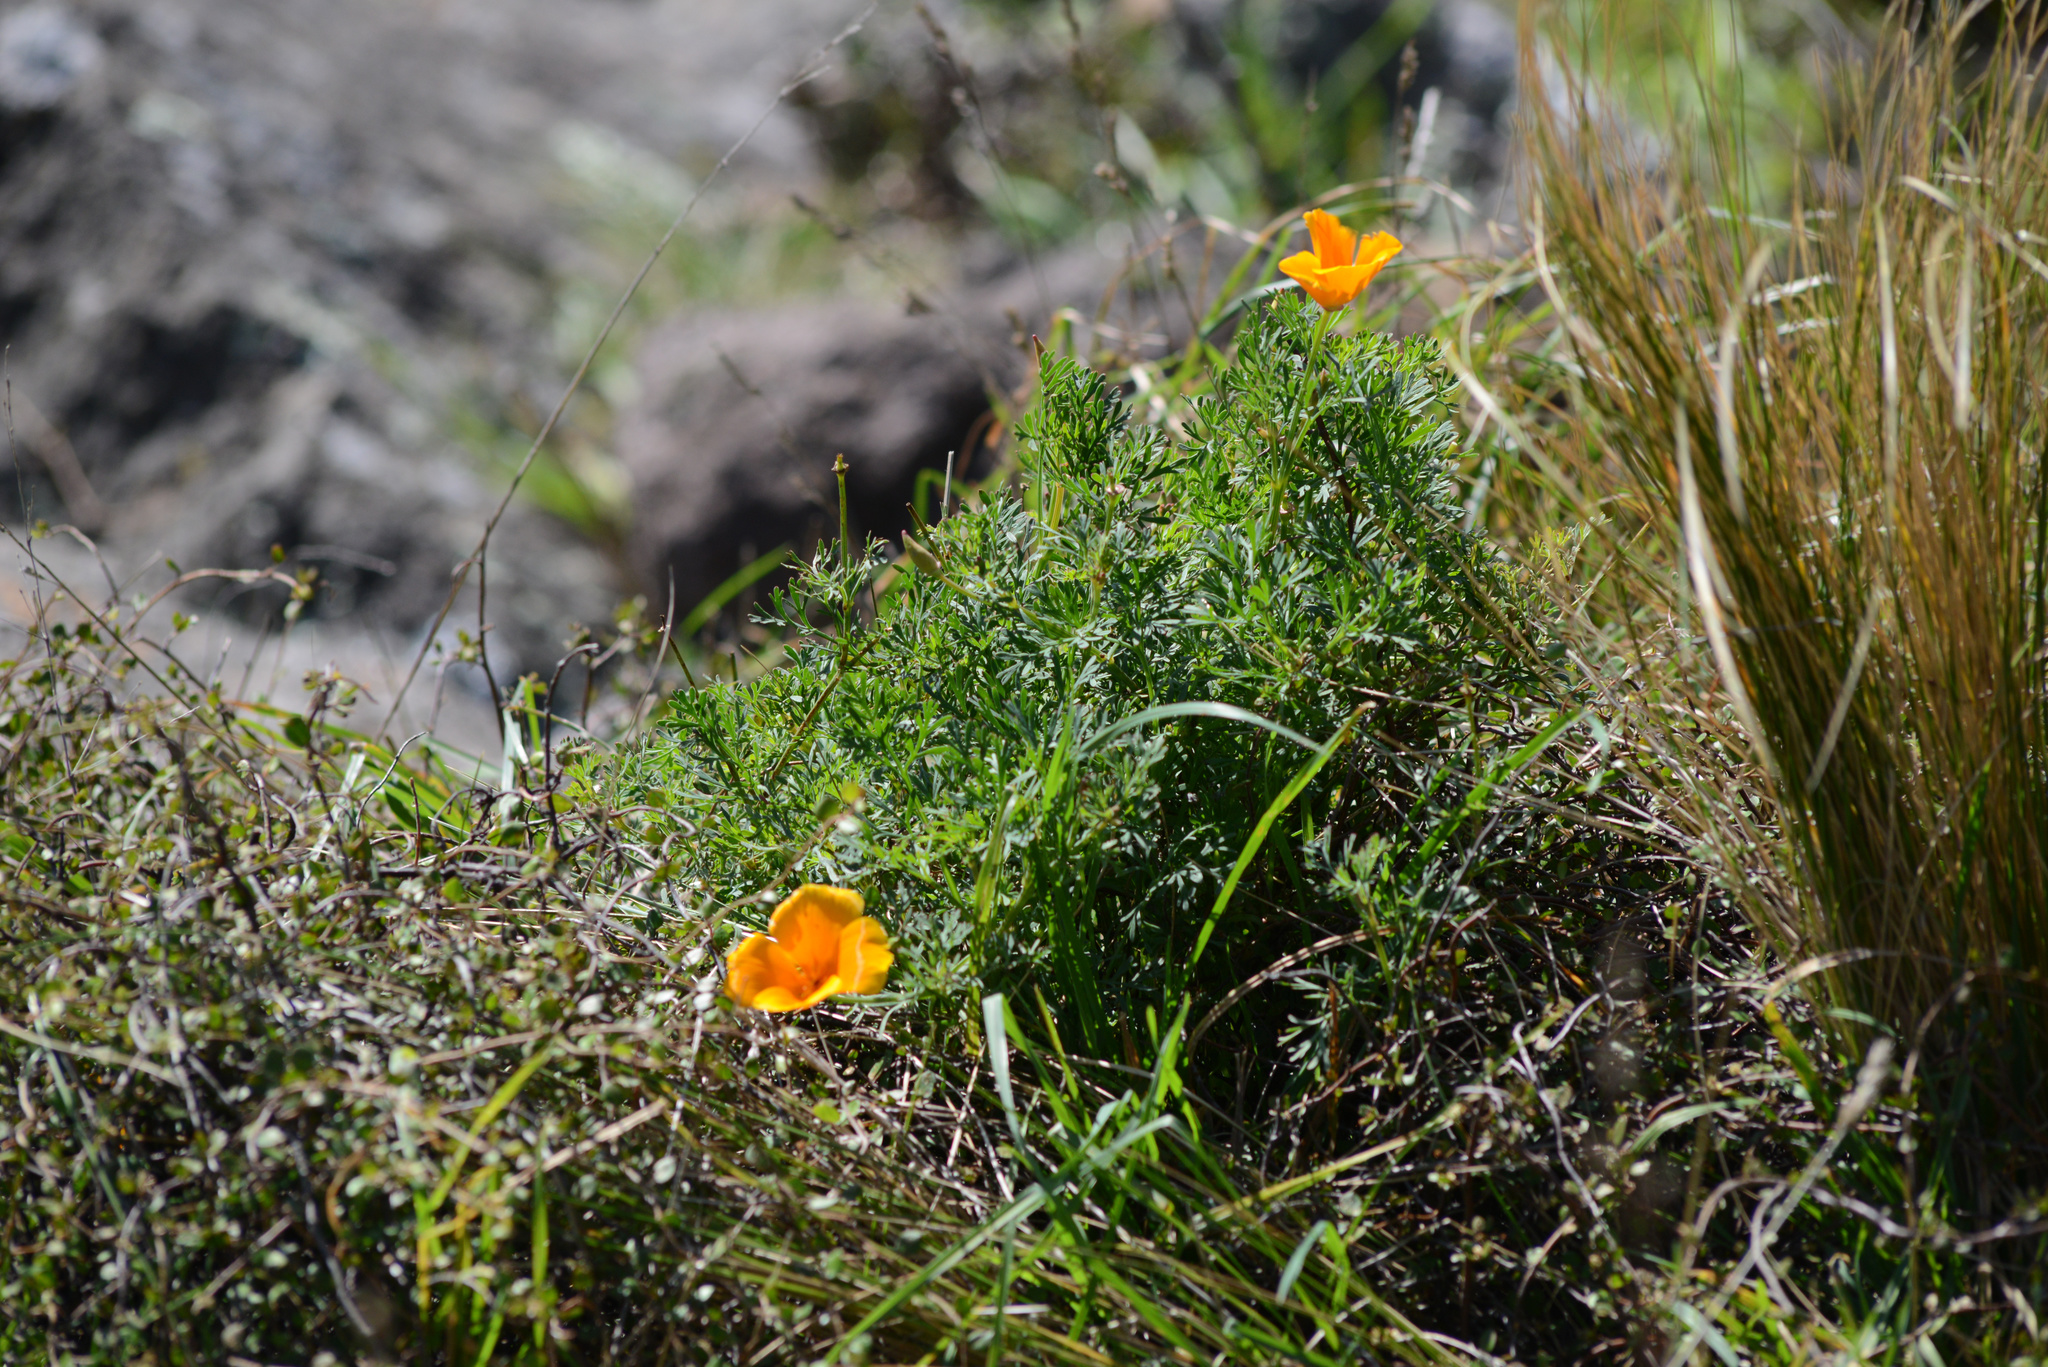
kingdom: Plantae
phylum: Tracheophyta
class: Magnoliopsida
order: Ranunculales
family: Papaveraceae
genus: Eschscholzia
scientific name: Eschscholzia californica
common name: California poppy
